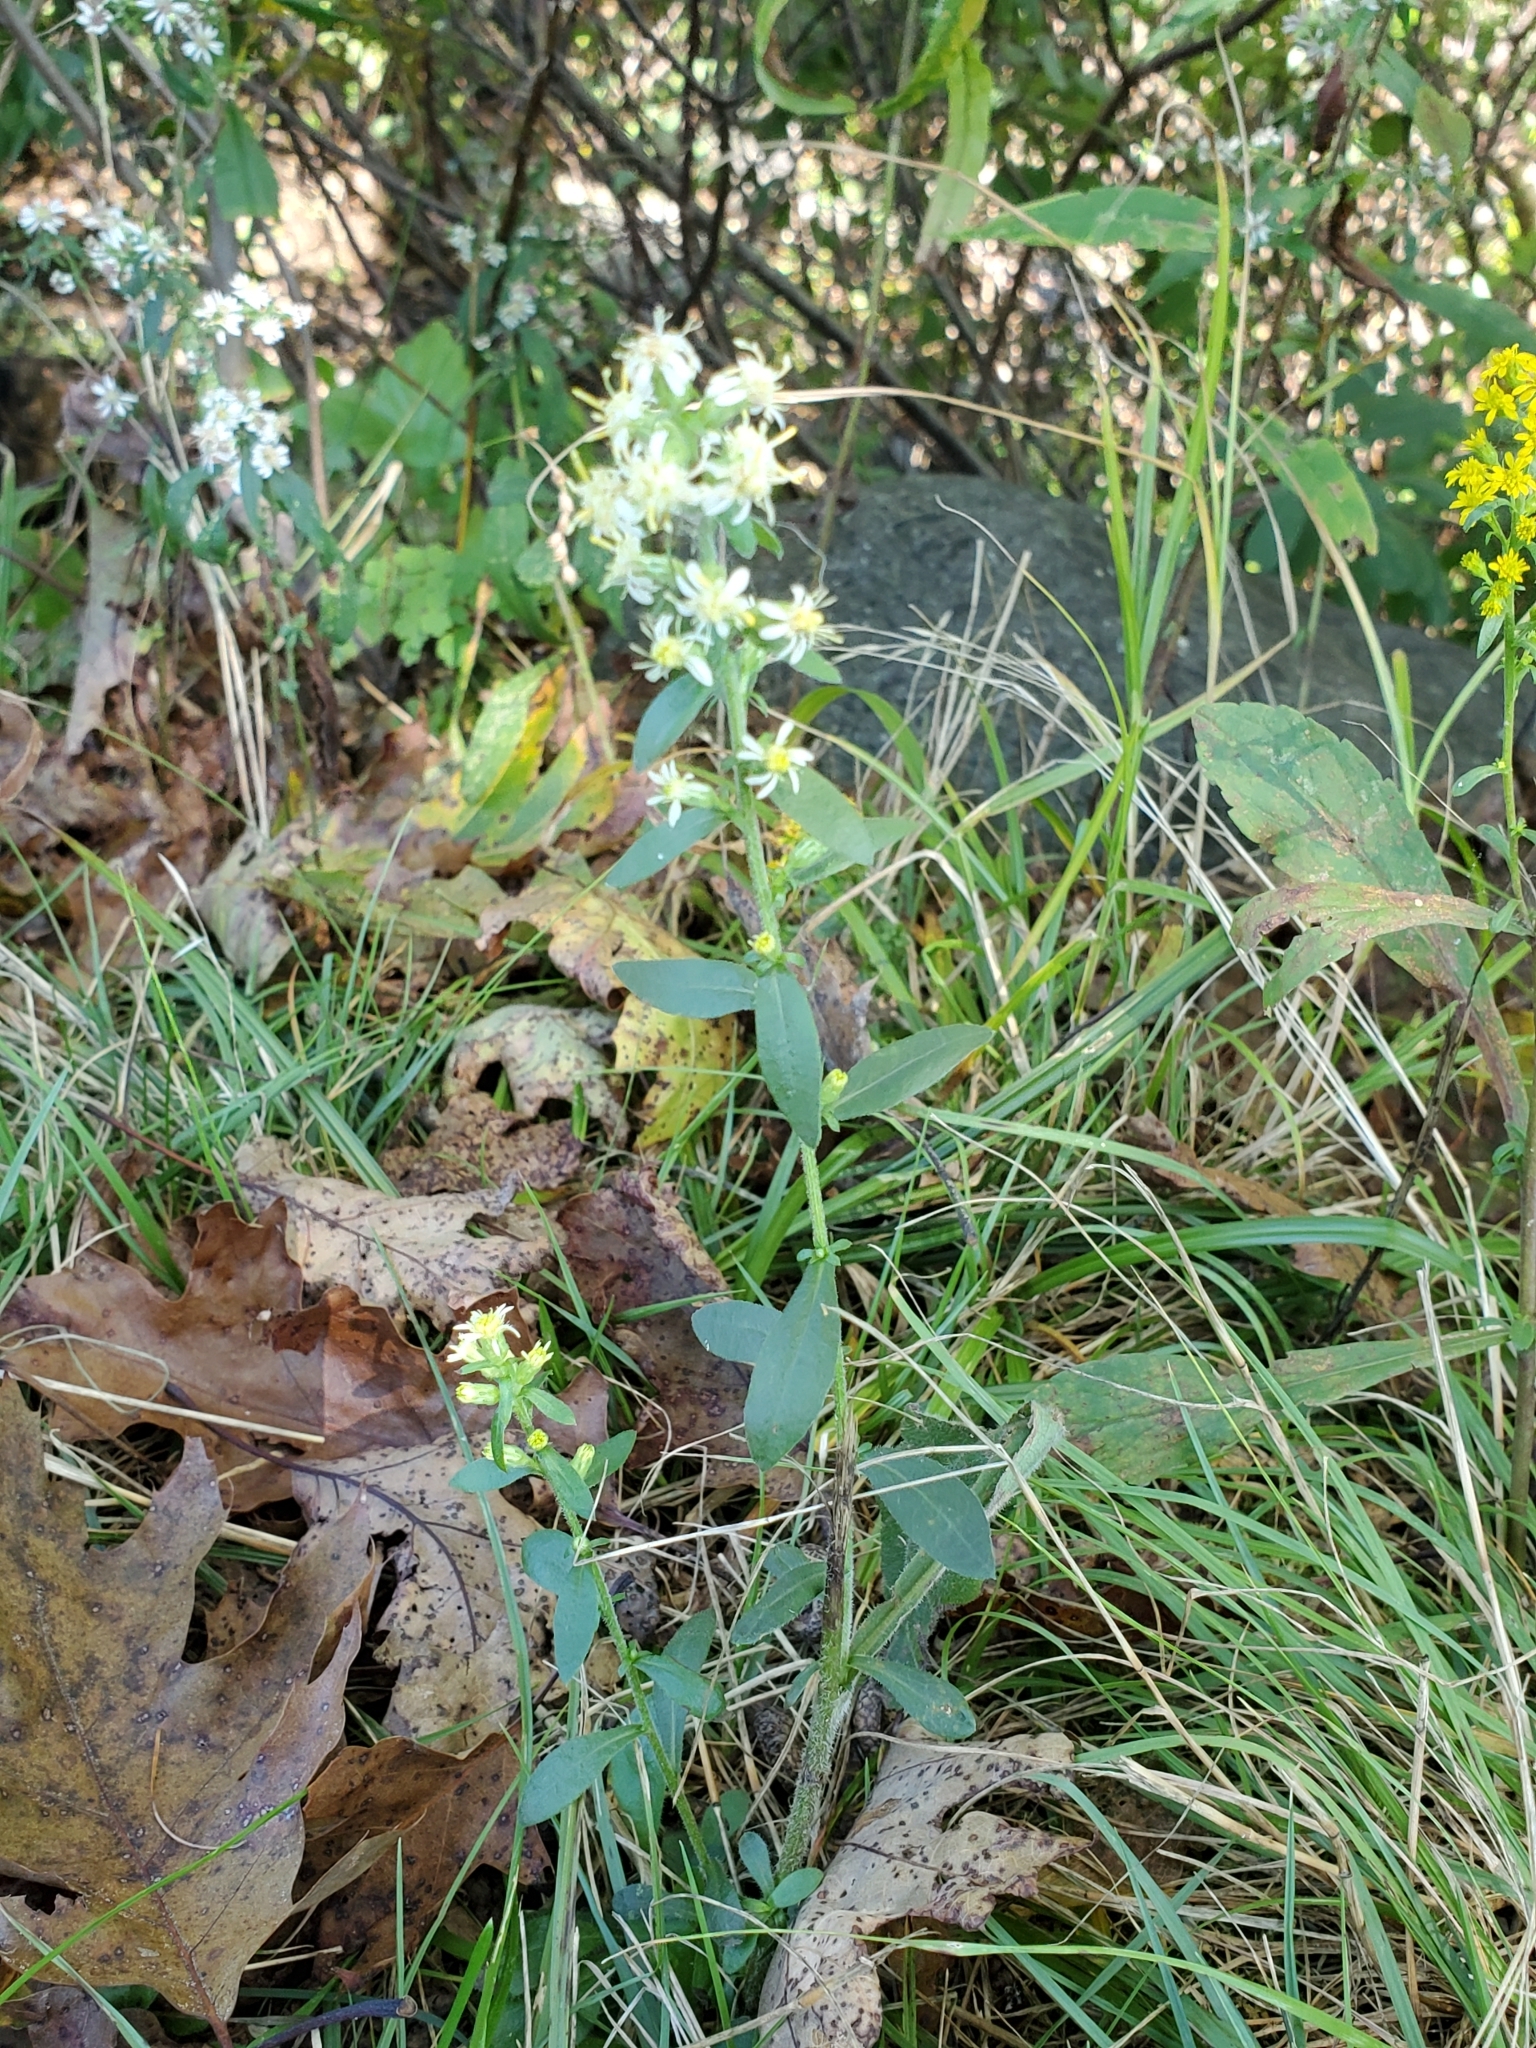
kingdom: Plantae
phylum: Tracheophyta
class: Magnoliopsida
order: Asterales
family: Asteraceae
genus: Solidago
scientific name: Solidago bicolor
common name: Silverrod
